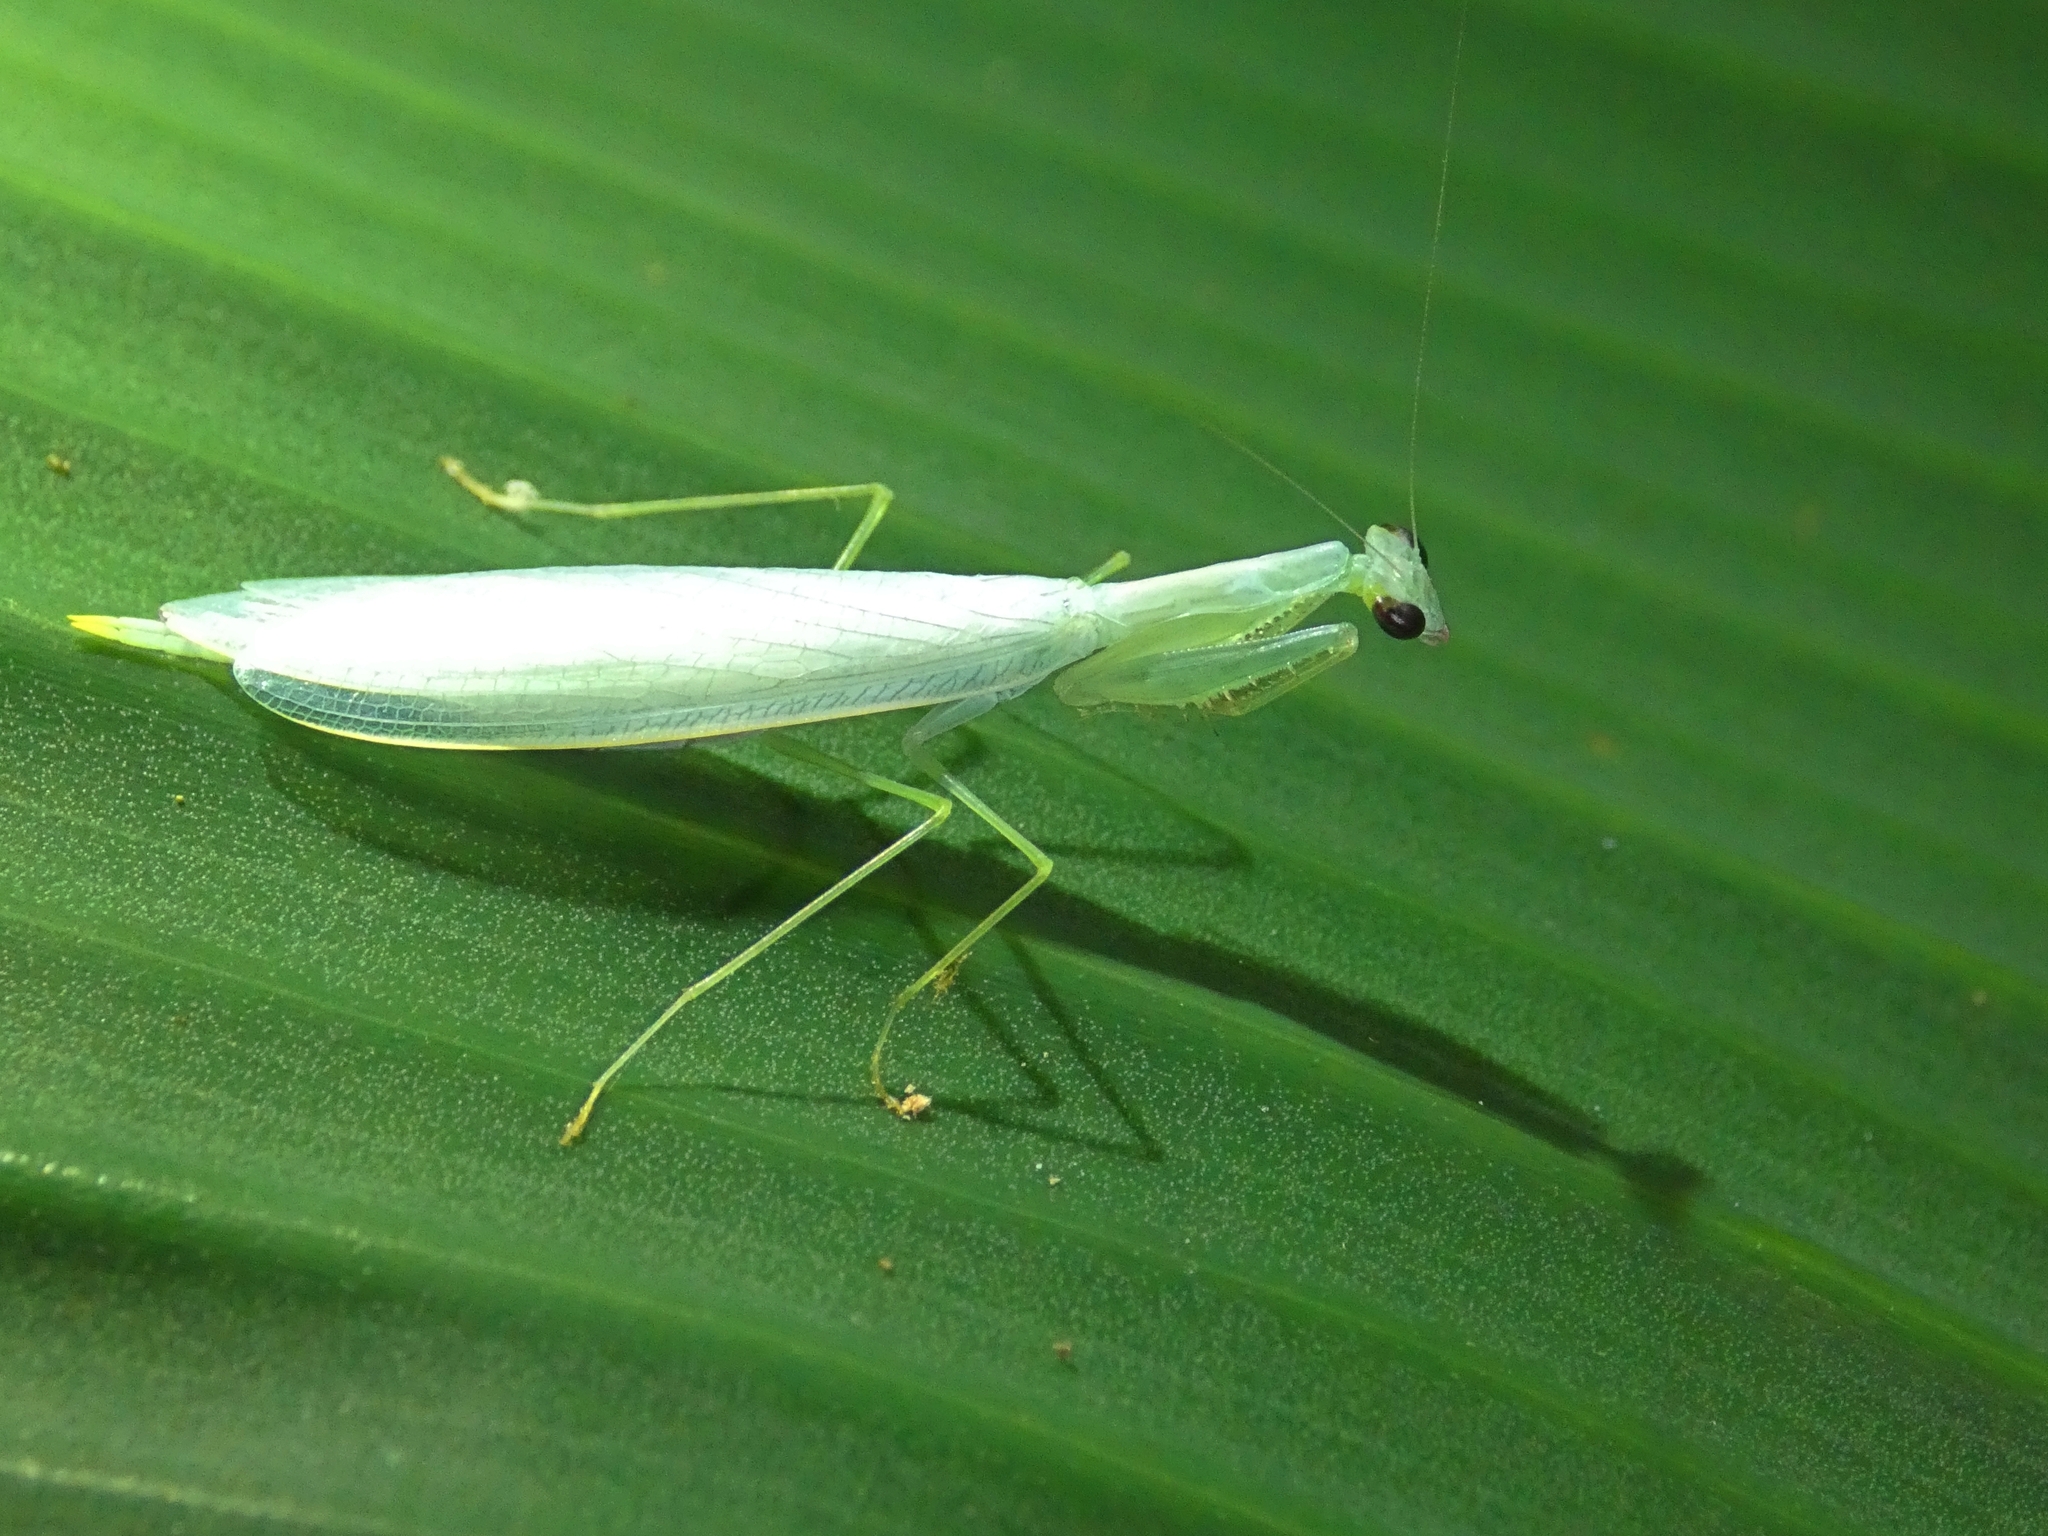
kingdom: Animalia
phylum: Arthropoda
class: Insecta
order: Mantodea
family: Nanomantidae
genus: Kongobatha
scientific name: Kongobatha diademata
